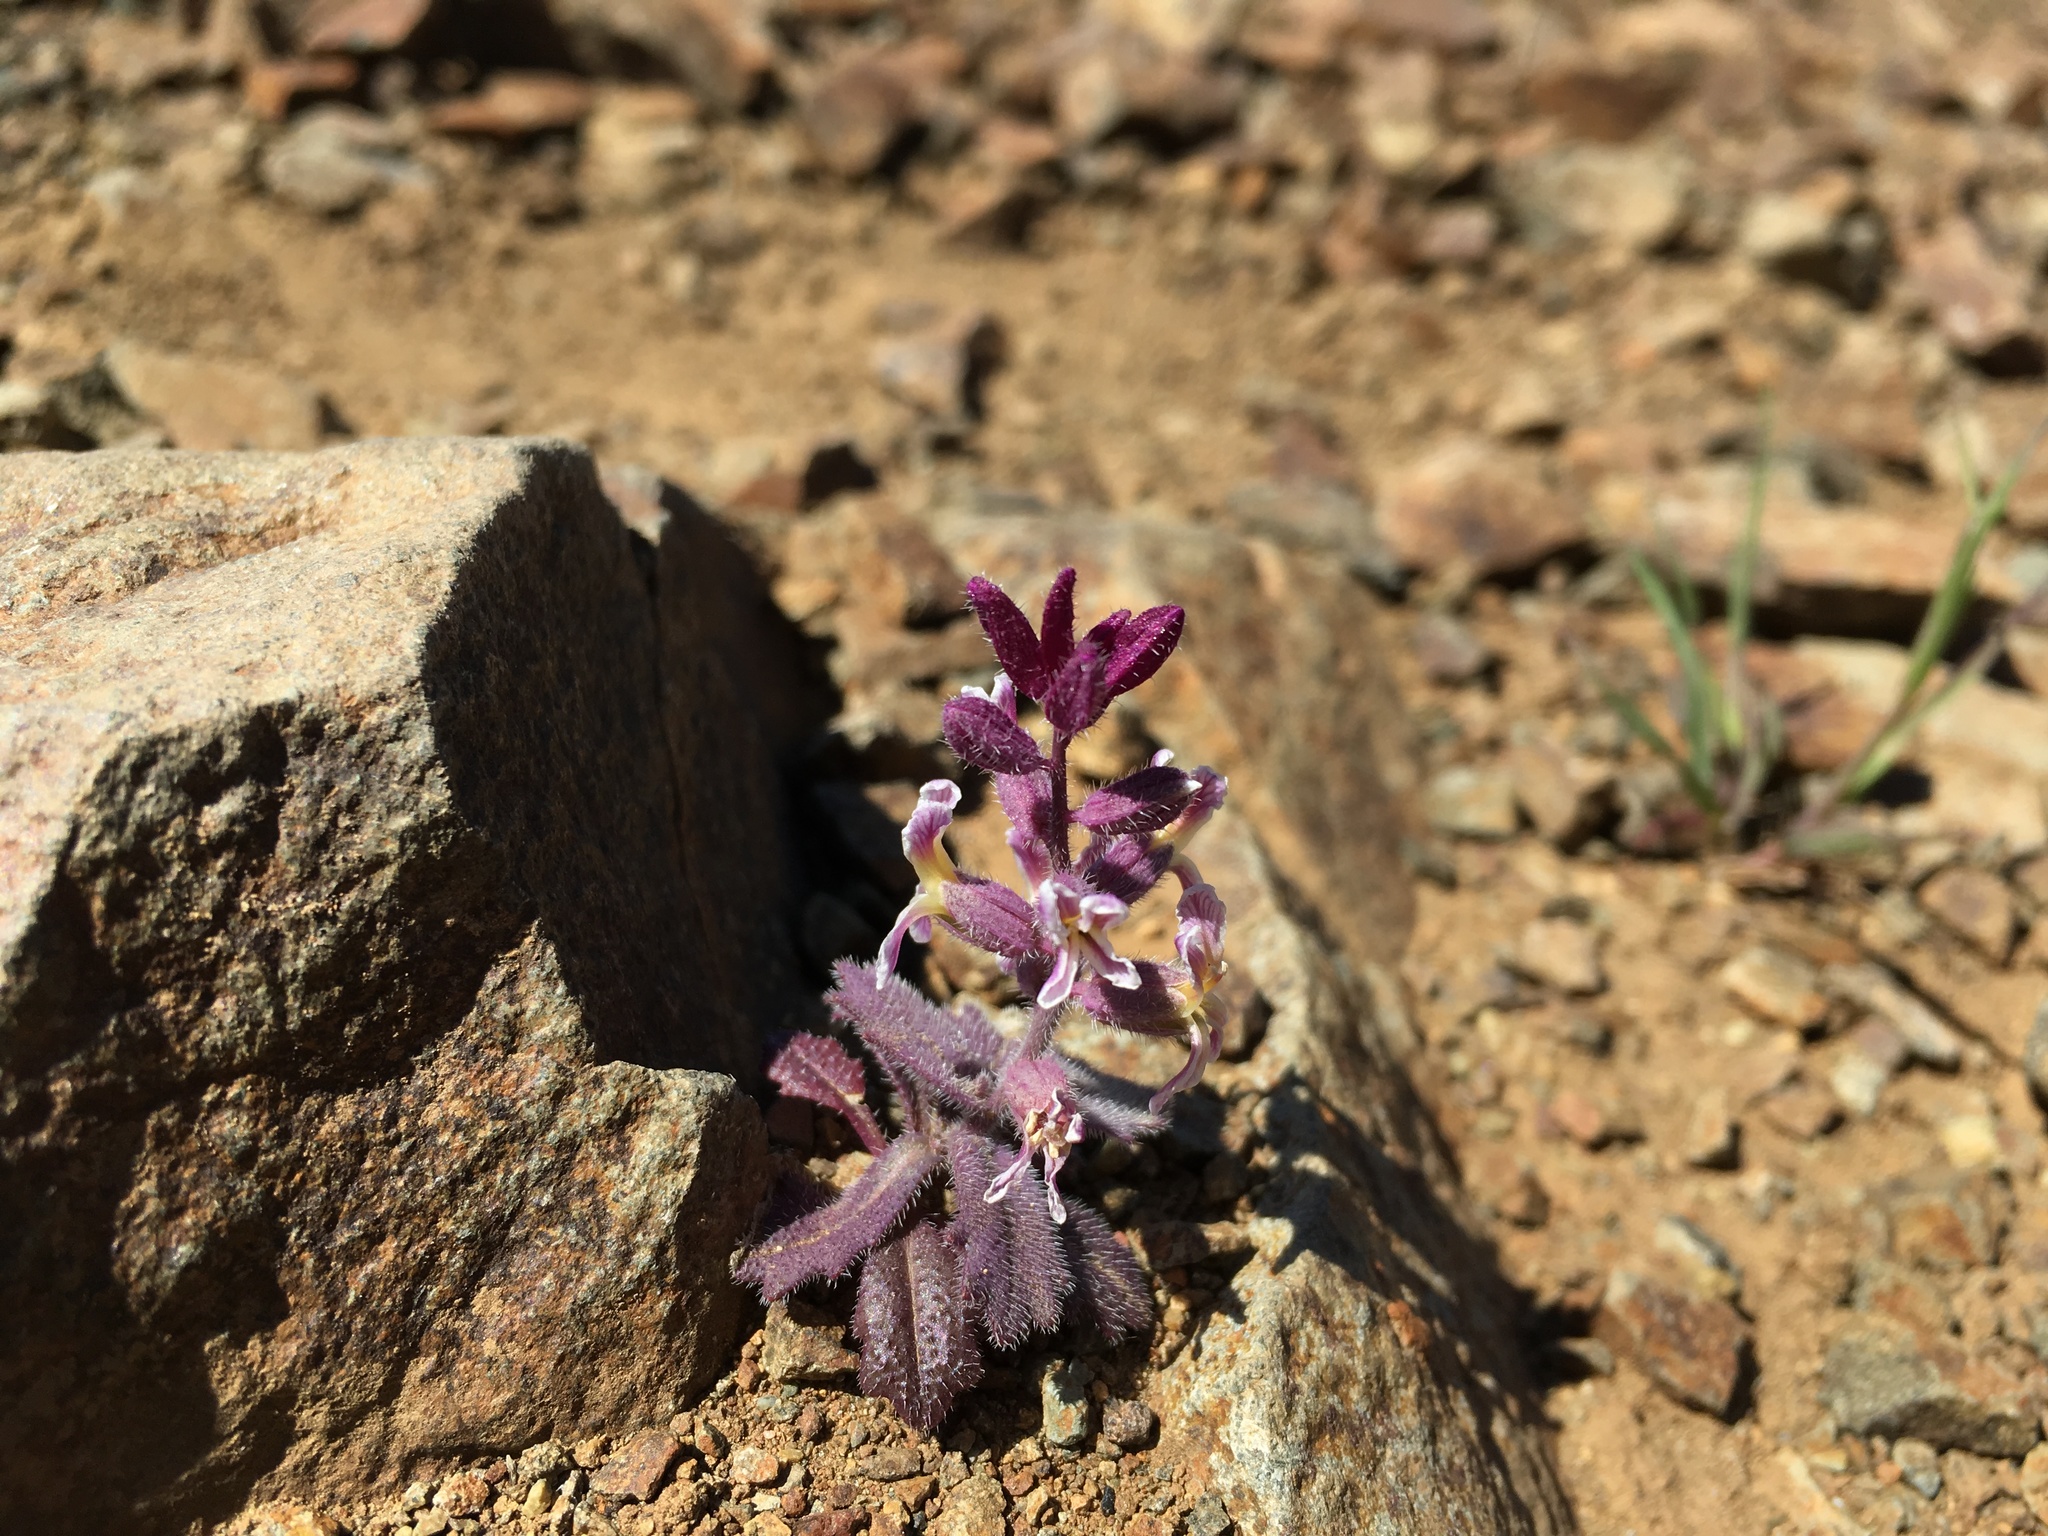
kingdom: Plantae
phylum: Tracheophyta
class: Magnoliopsida
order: Brassicales
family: Brassicaceae
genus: Streptanthus
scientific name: Streptanthus hispidus
